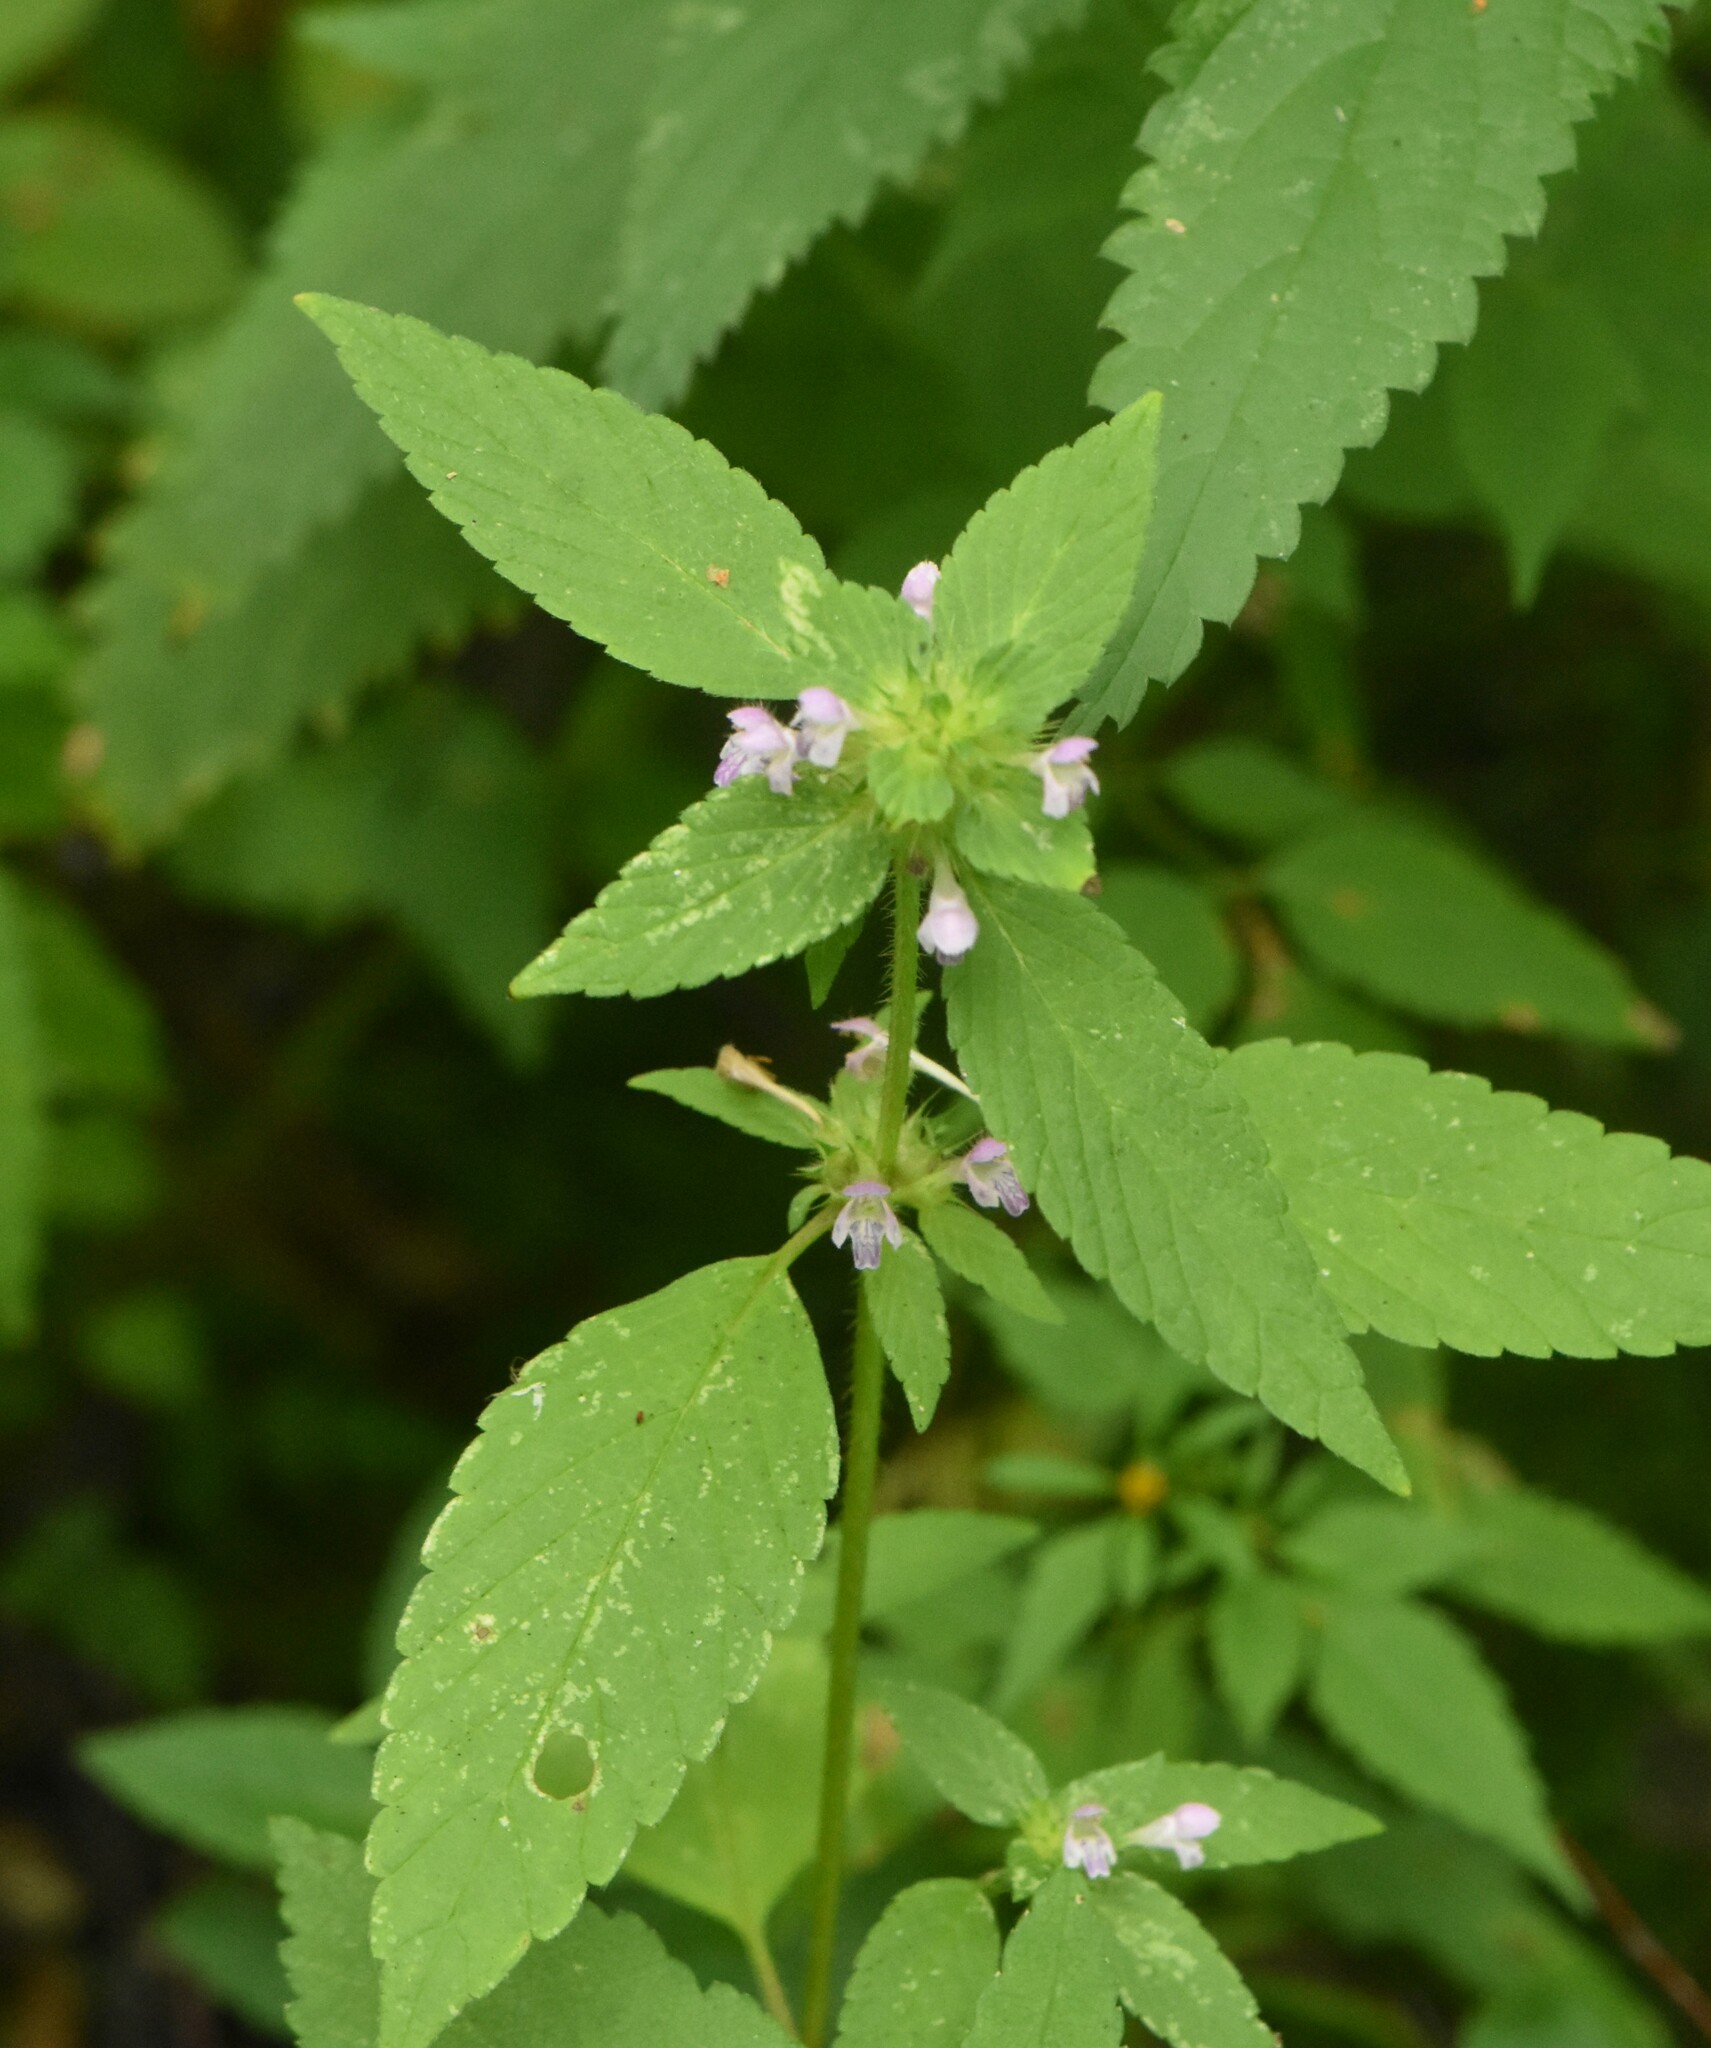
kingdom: Plantae
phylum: Tracheophyta
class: Magnoliopsida
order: Lamiales
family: Lamiaceae
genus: Galeopsis
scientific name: Galeopsis bifida
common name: Bifid hemp-nettle
